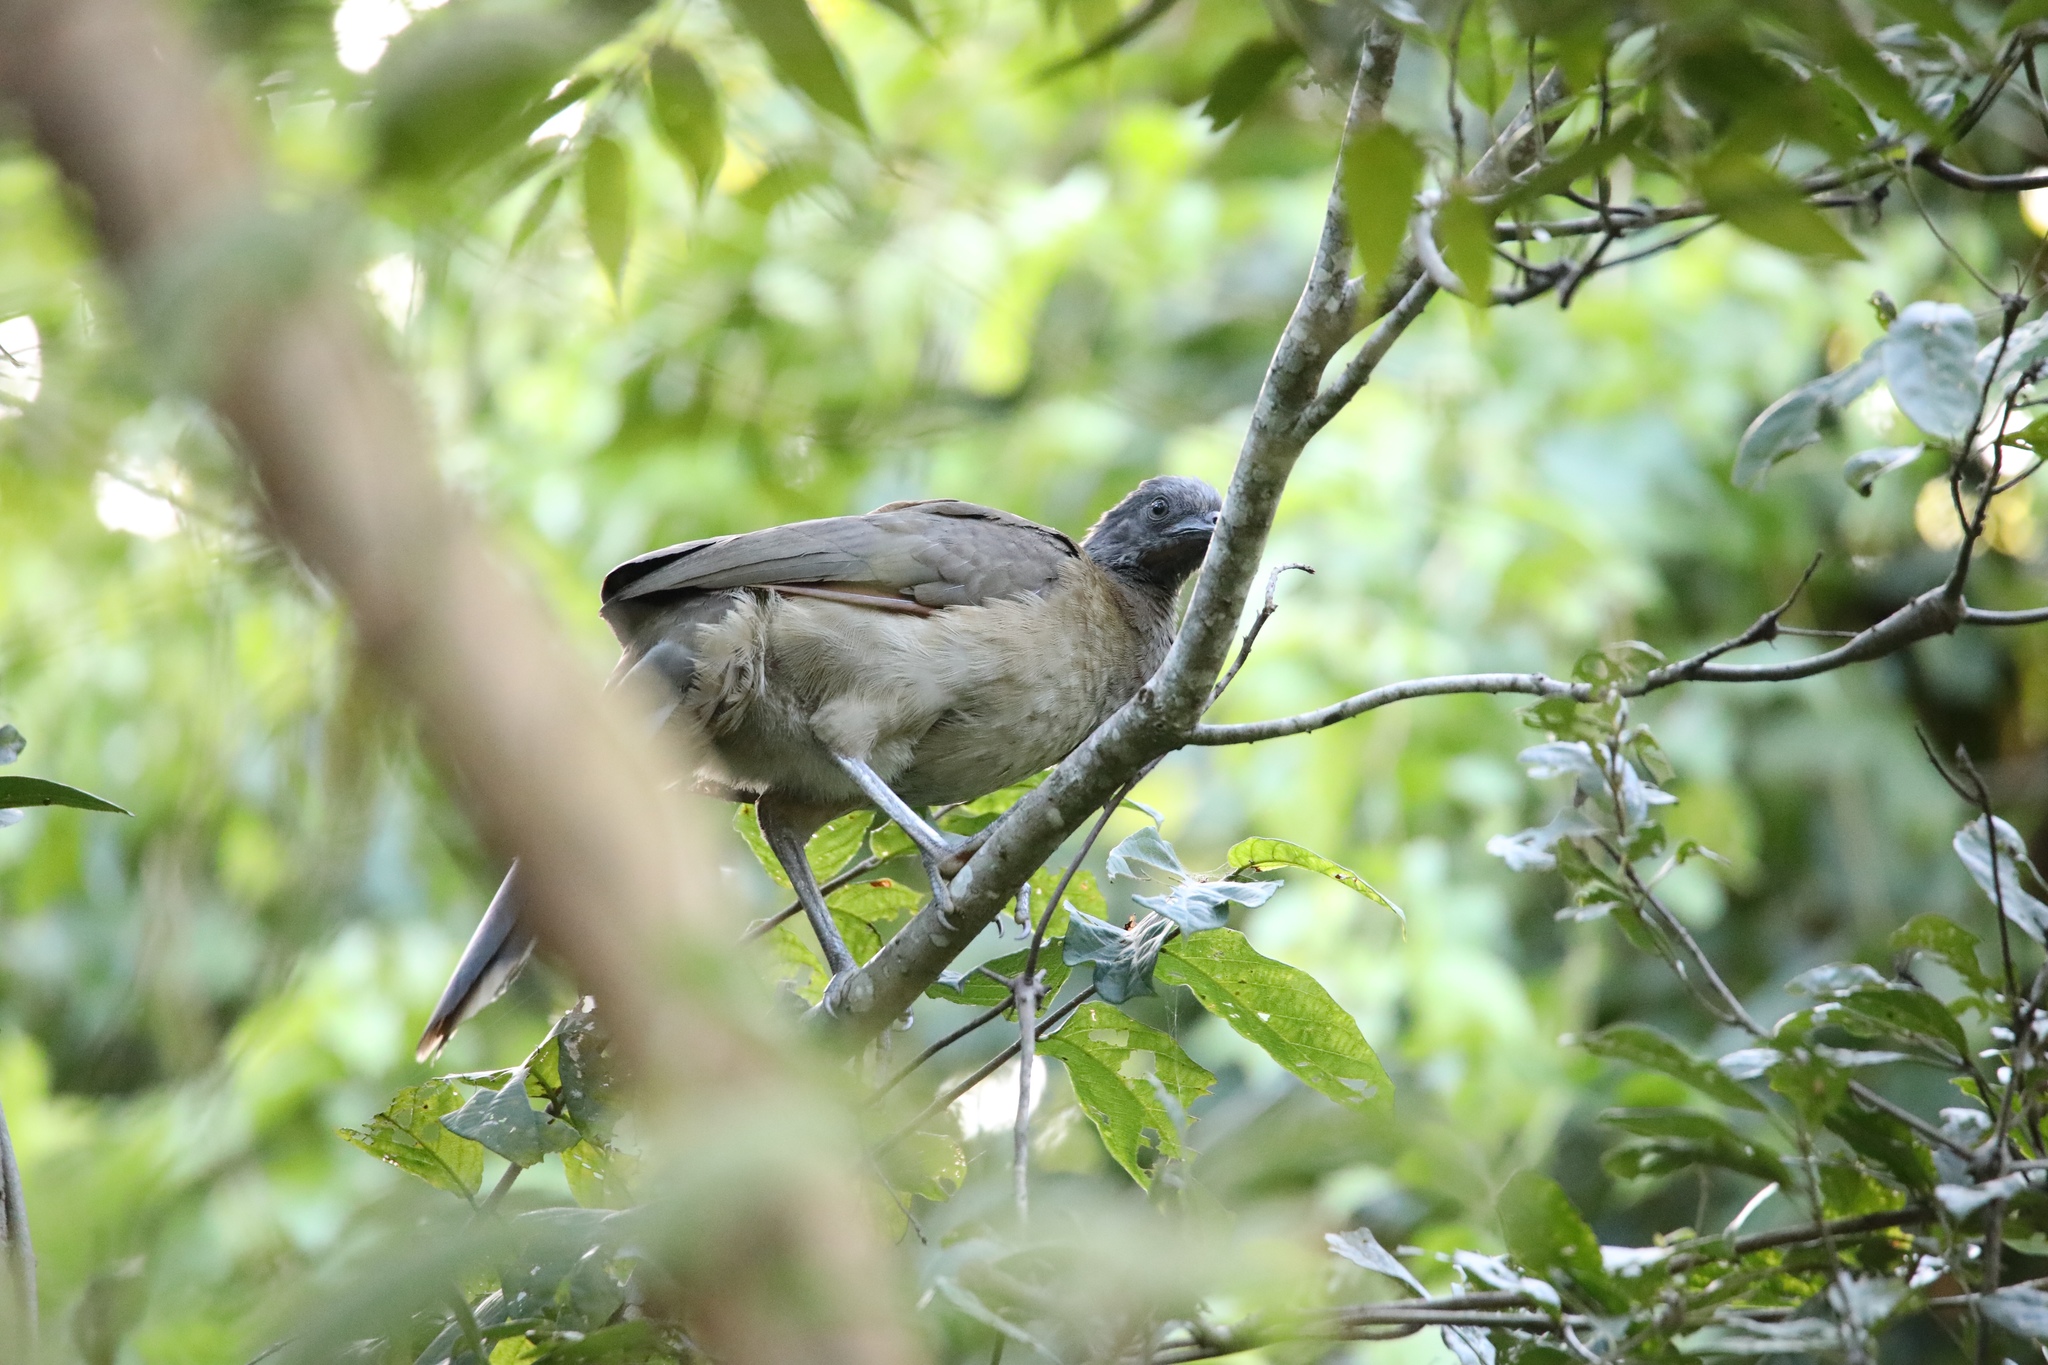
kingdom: Animalia
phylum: Chordata
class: Aves
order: Galliformes
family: Cracidae
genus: Ortalis
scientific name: Ortalis cinereiceps
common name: Grey-headed chachalaca
